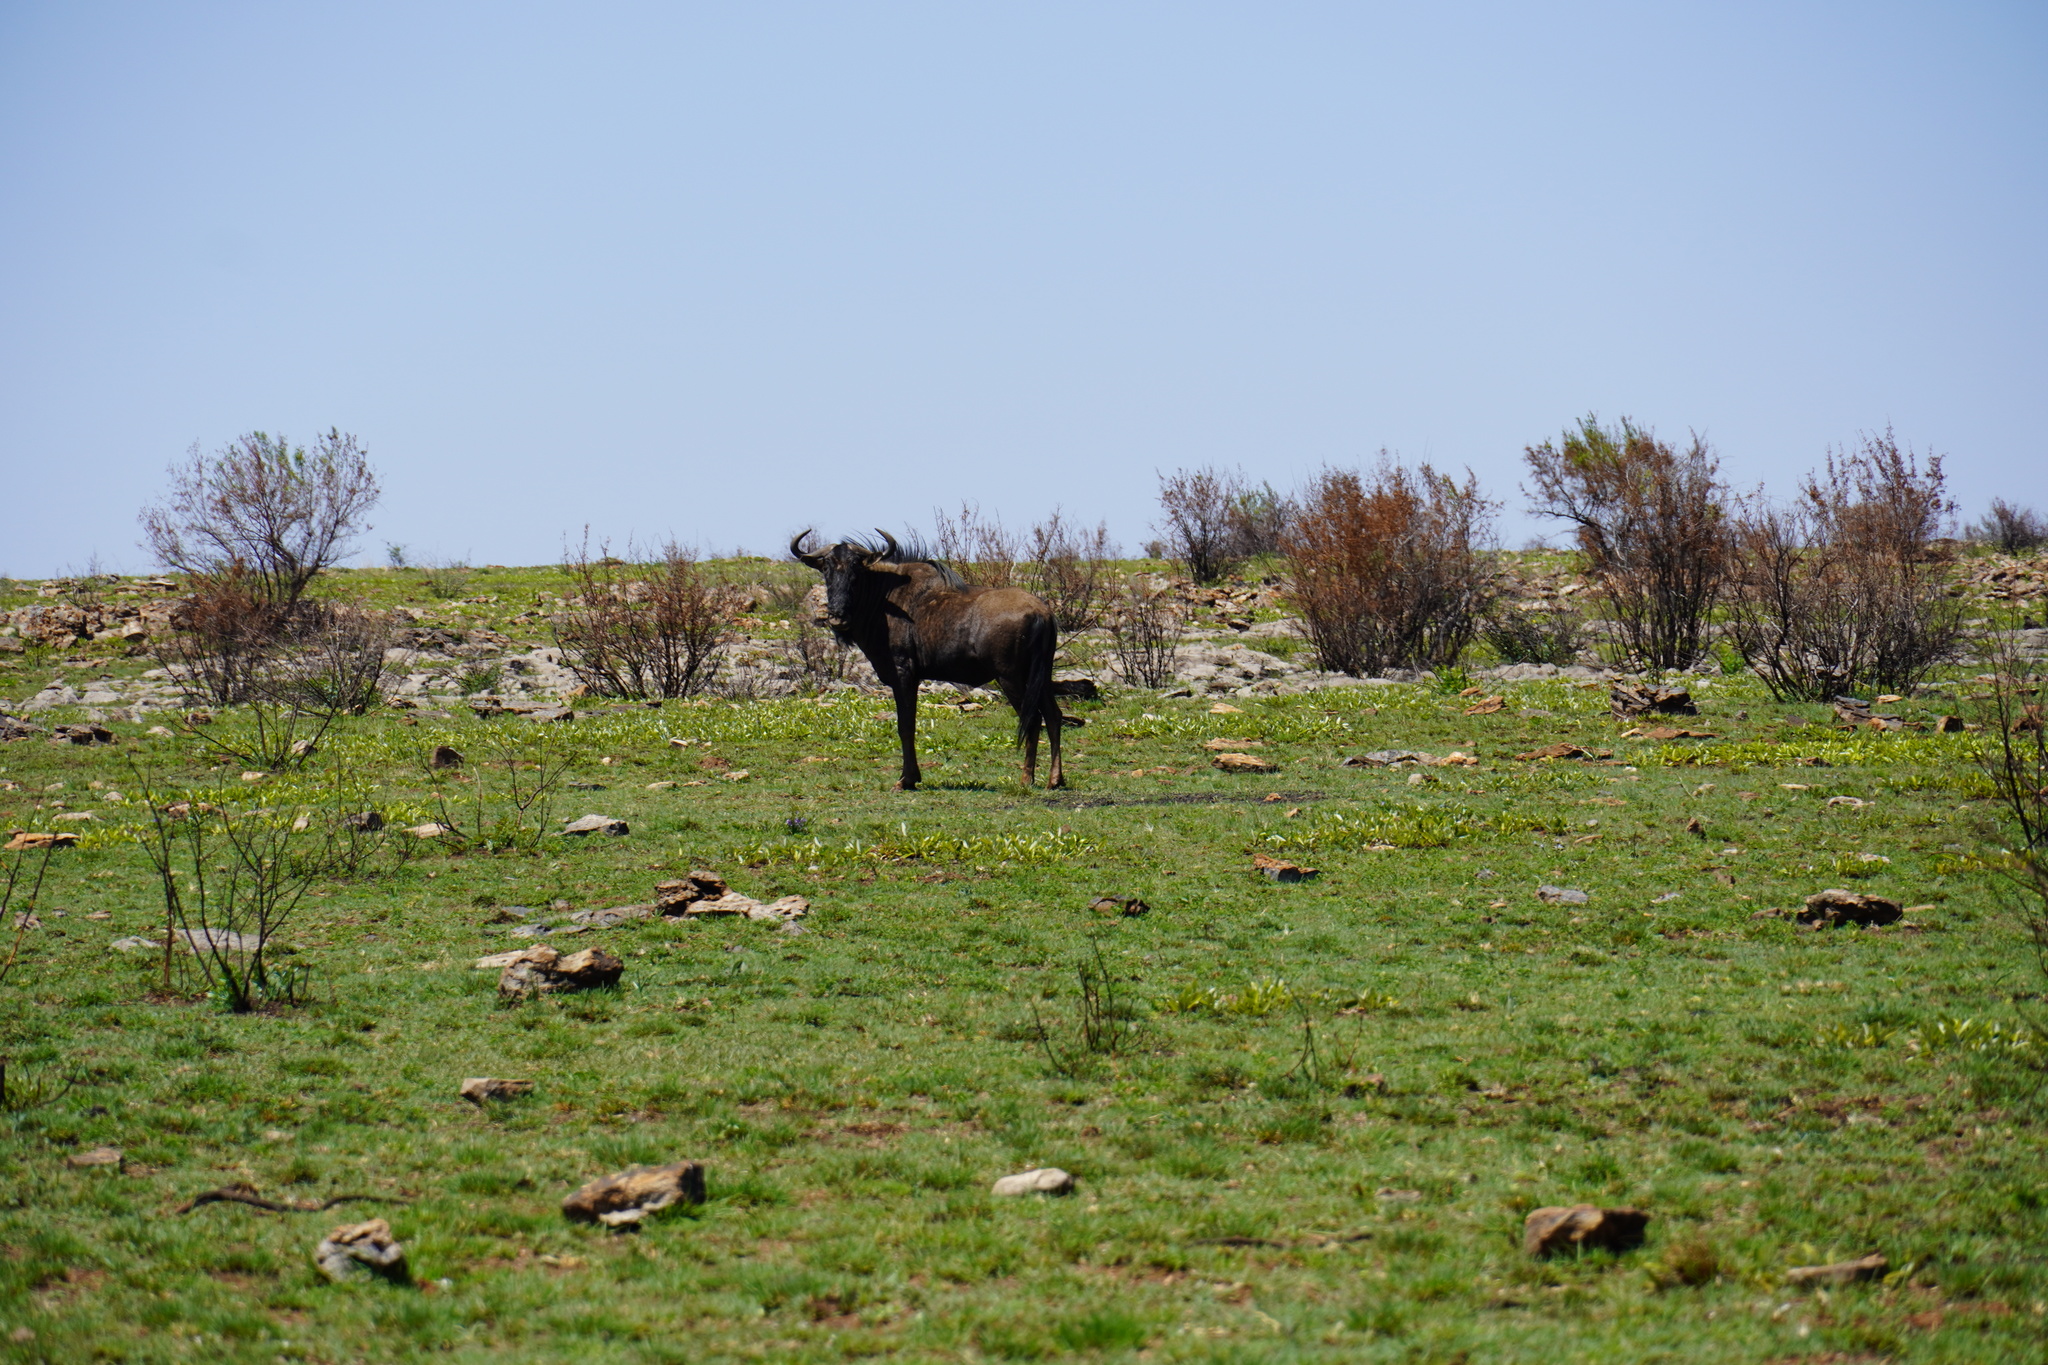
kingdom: Animalia
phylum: Chordata
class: Mammalia
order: Artiodactyla
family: Bovidae
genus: Connochaetes
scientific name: Connochaetes taurinus
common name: Blue wildebeest
